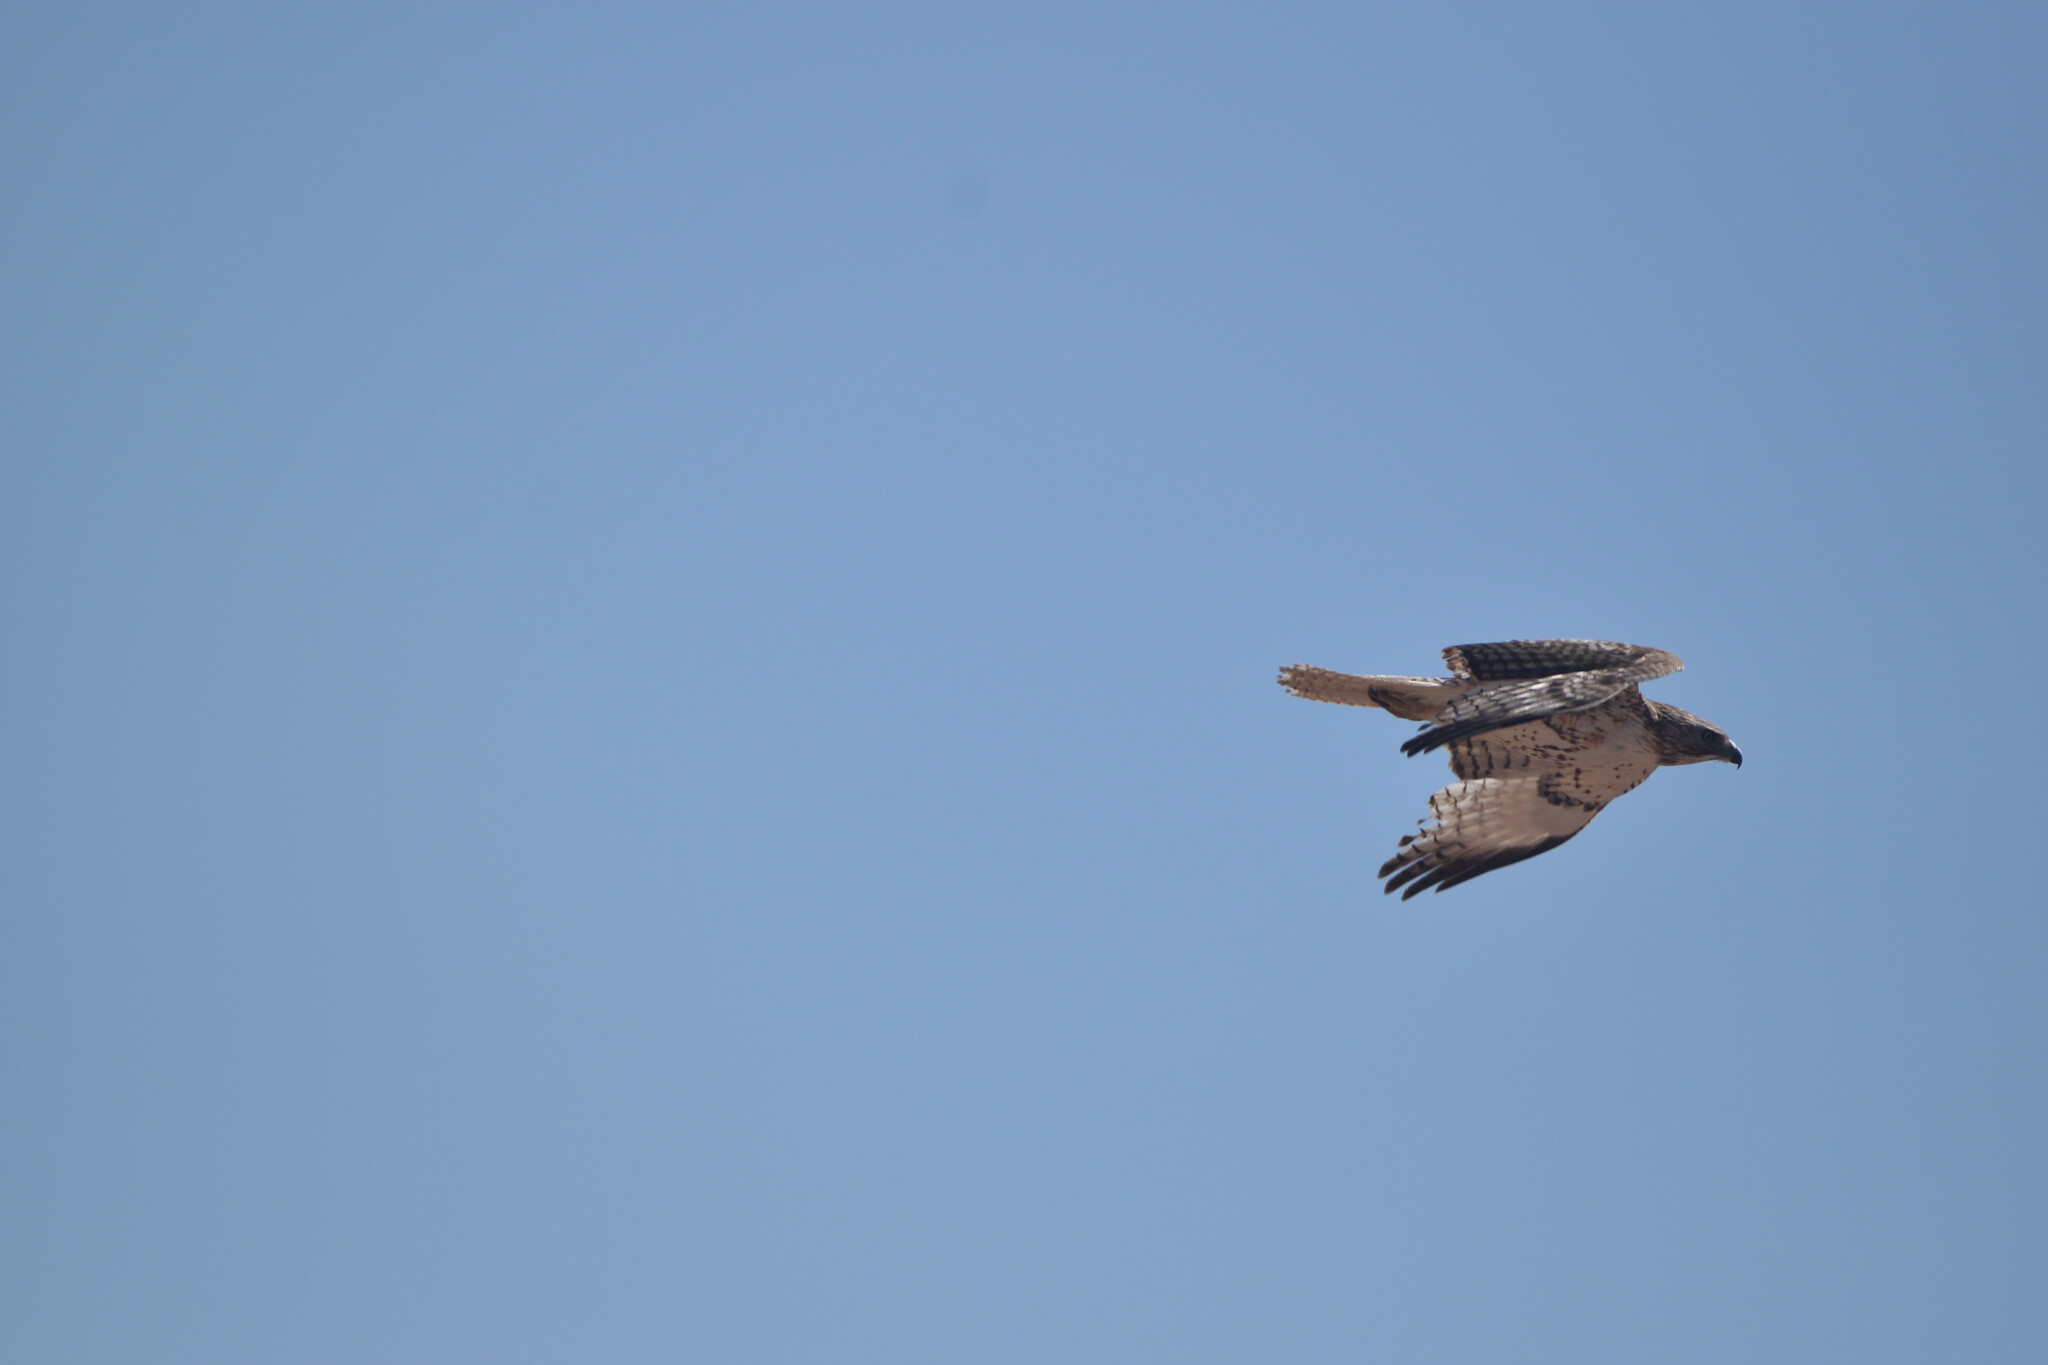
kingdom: Animalia
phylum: Chordata
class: Aves
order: Accipitriformes
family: Accipitridae
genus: Buteo
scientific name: Buteo jamaicensis
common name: Red-tailed hawk
